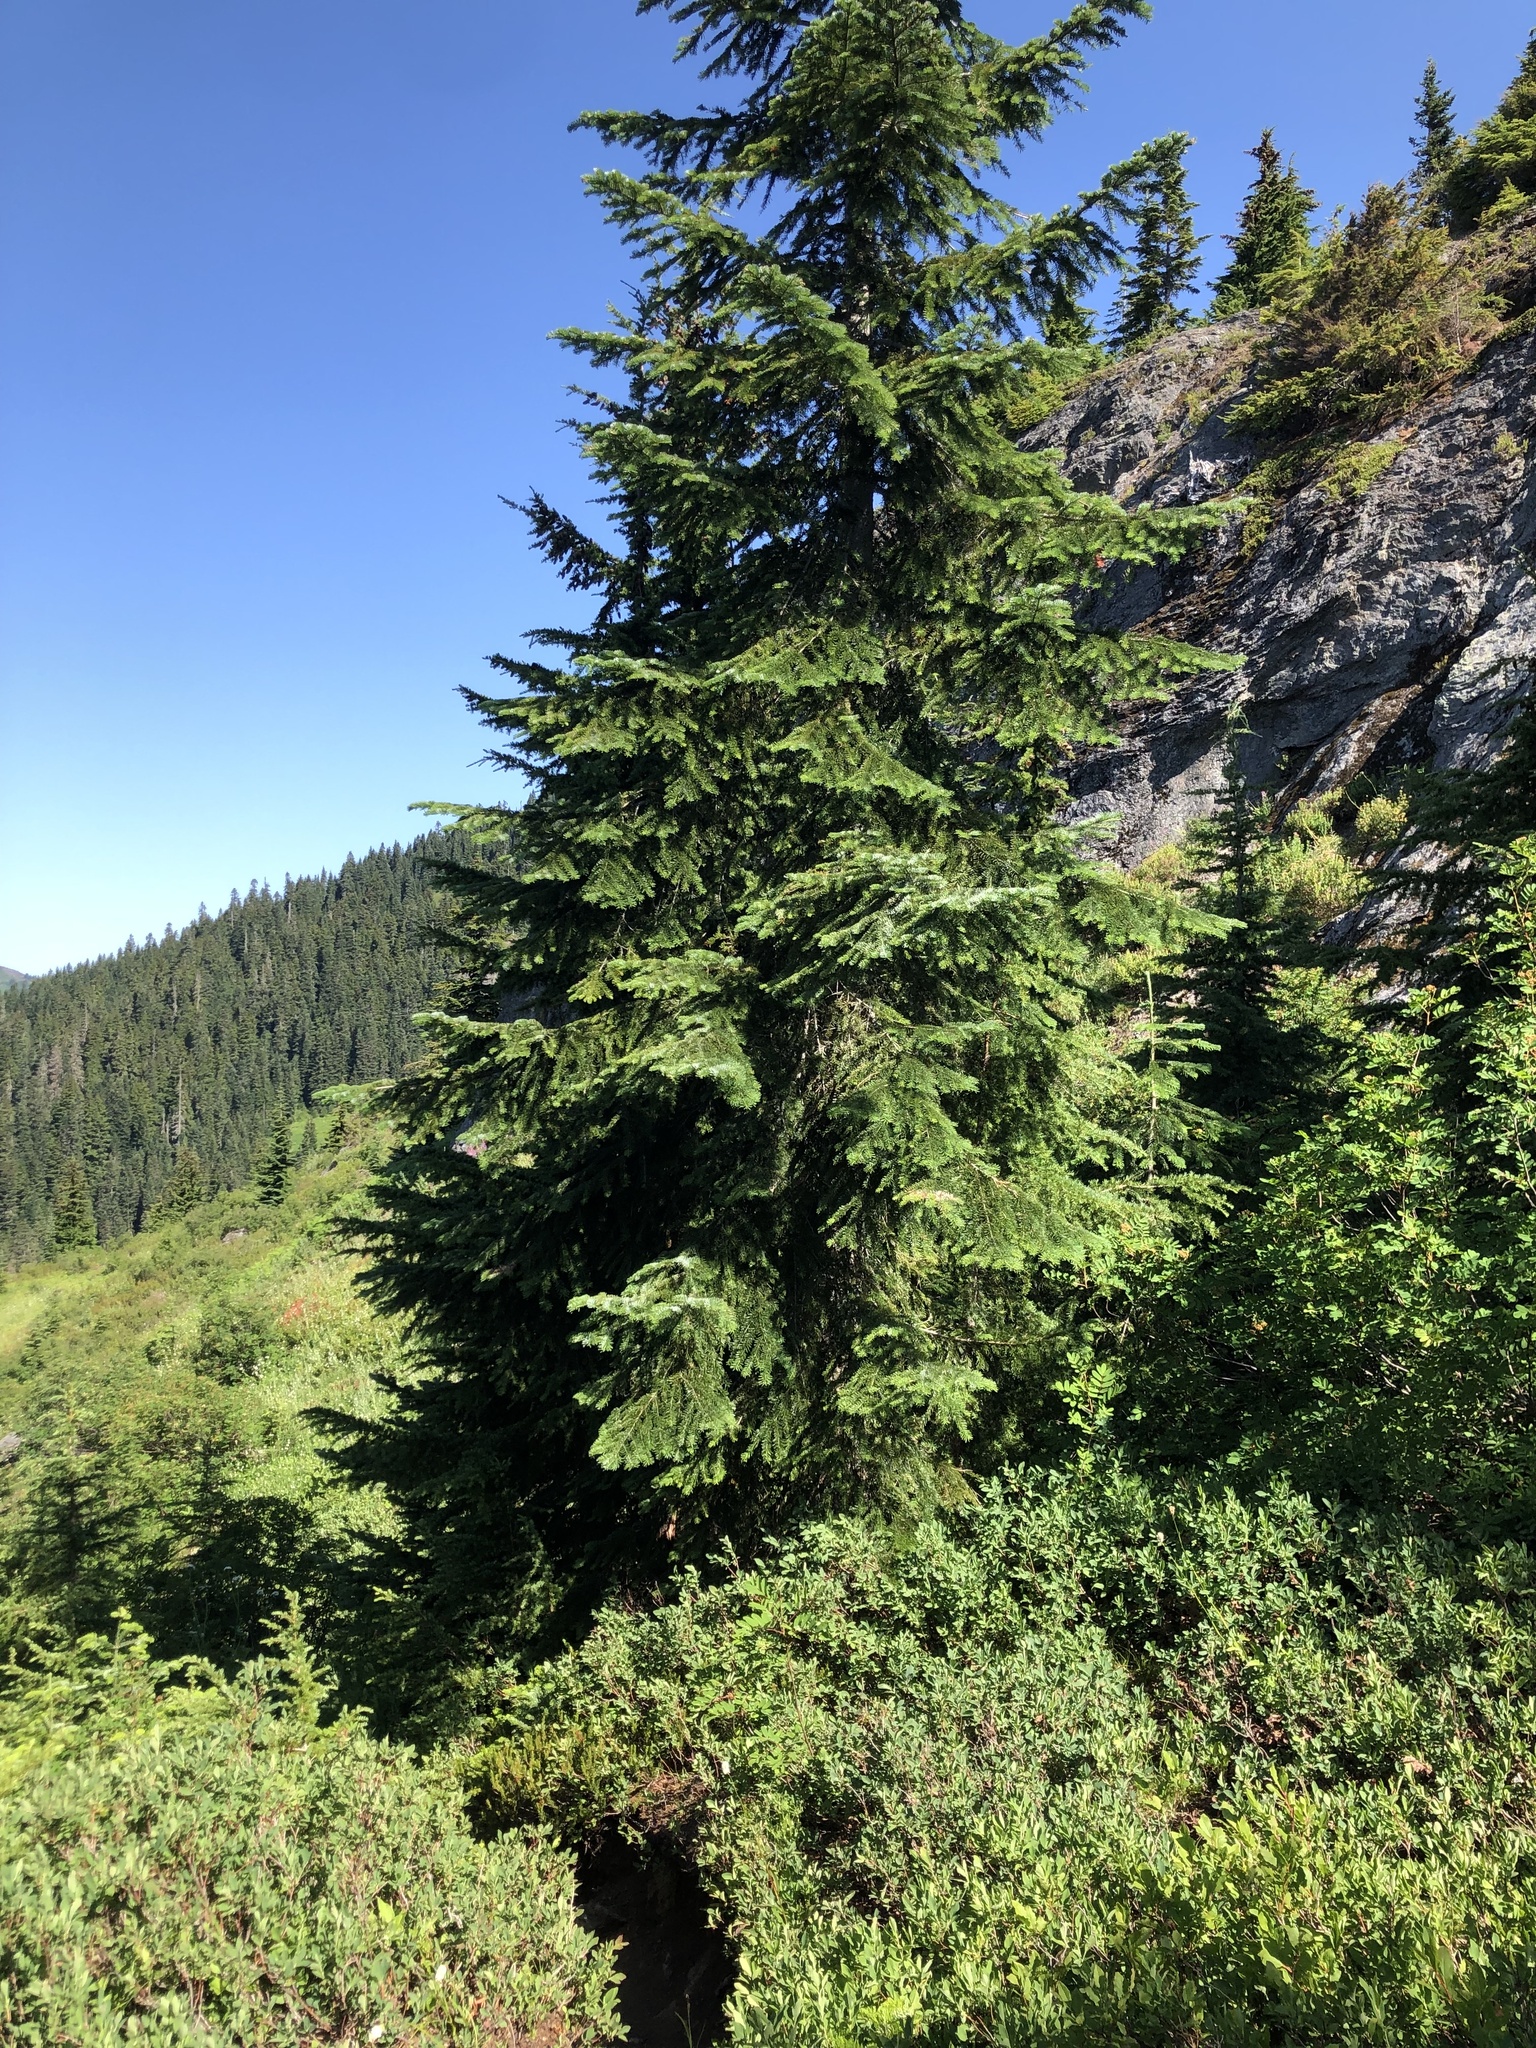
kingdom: Plantae
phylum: Tracheophyta
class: Pinopsida
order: Pinales
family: Pinaceae
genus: Abies
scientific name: Abies amabilis
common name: Pacific silver fir
